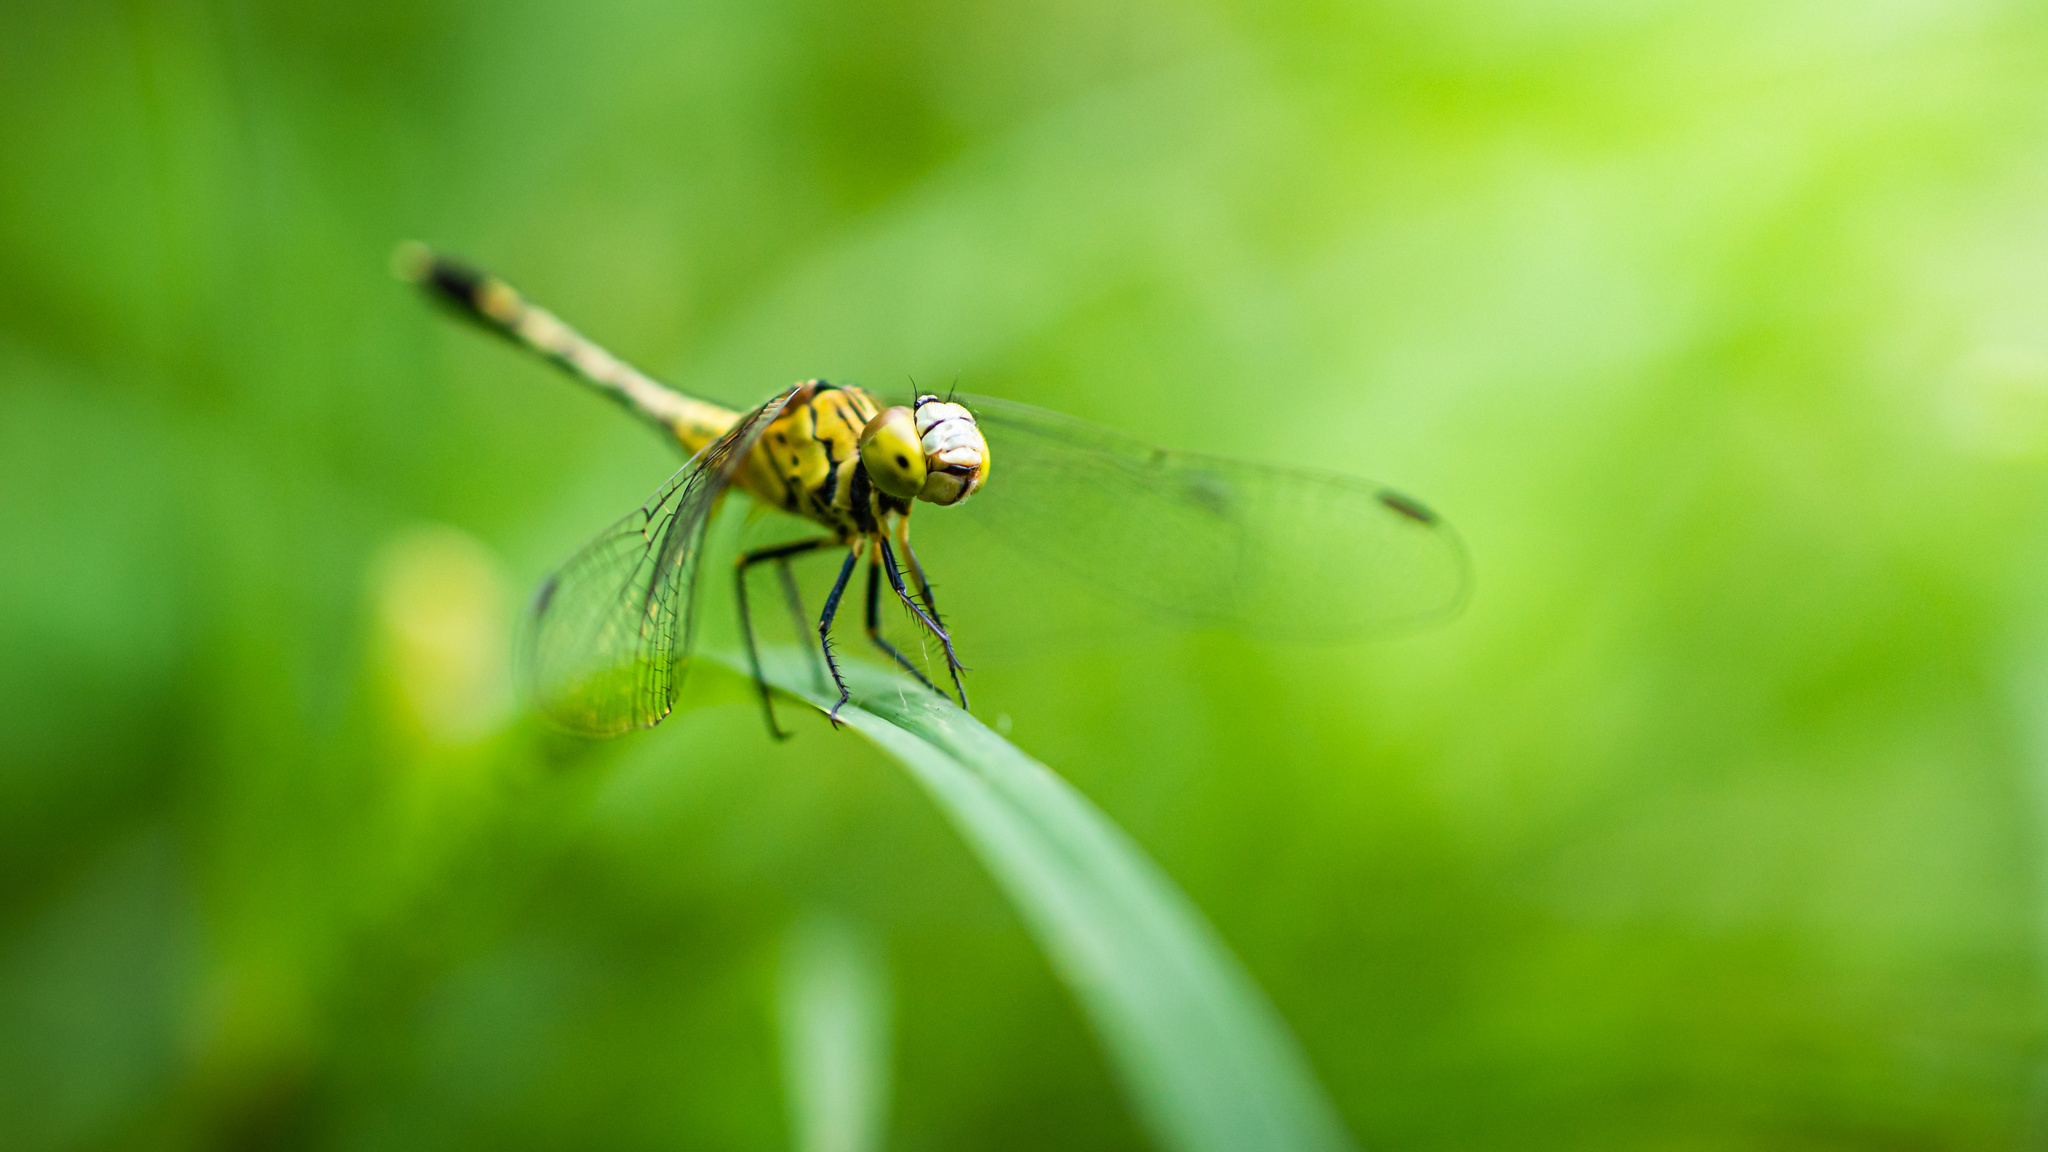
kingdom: Animalia
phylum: Arthropoda
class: Insecta
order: Odonata
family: Libellulidae
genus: Diplacodes
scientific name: Diplacodes trivialis
